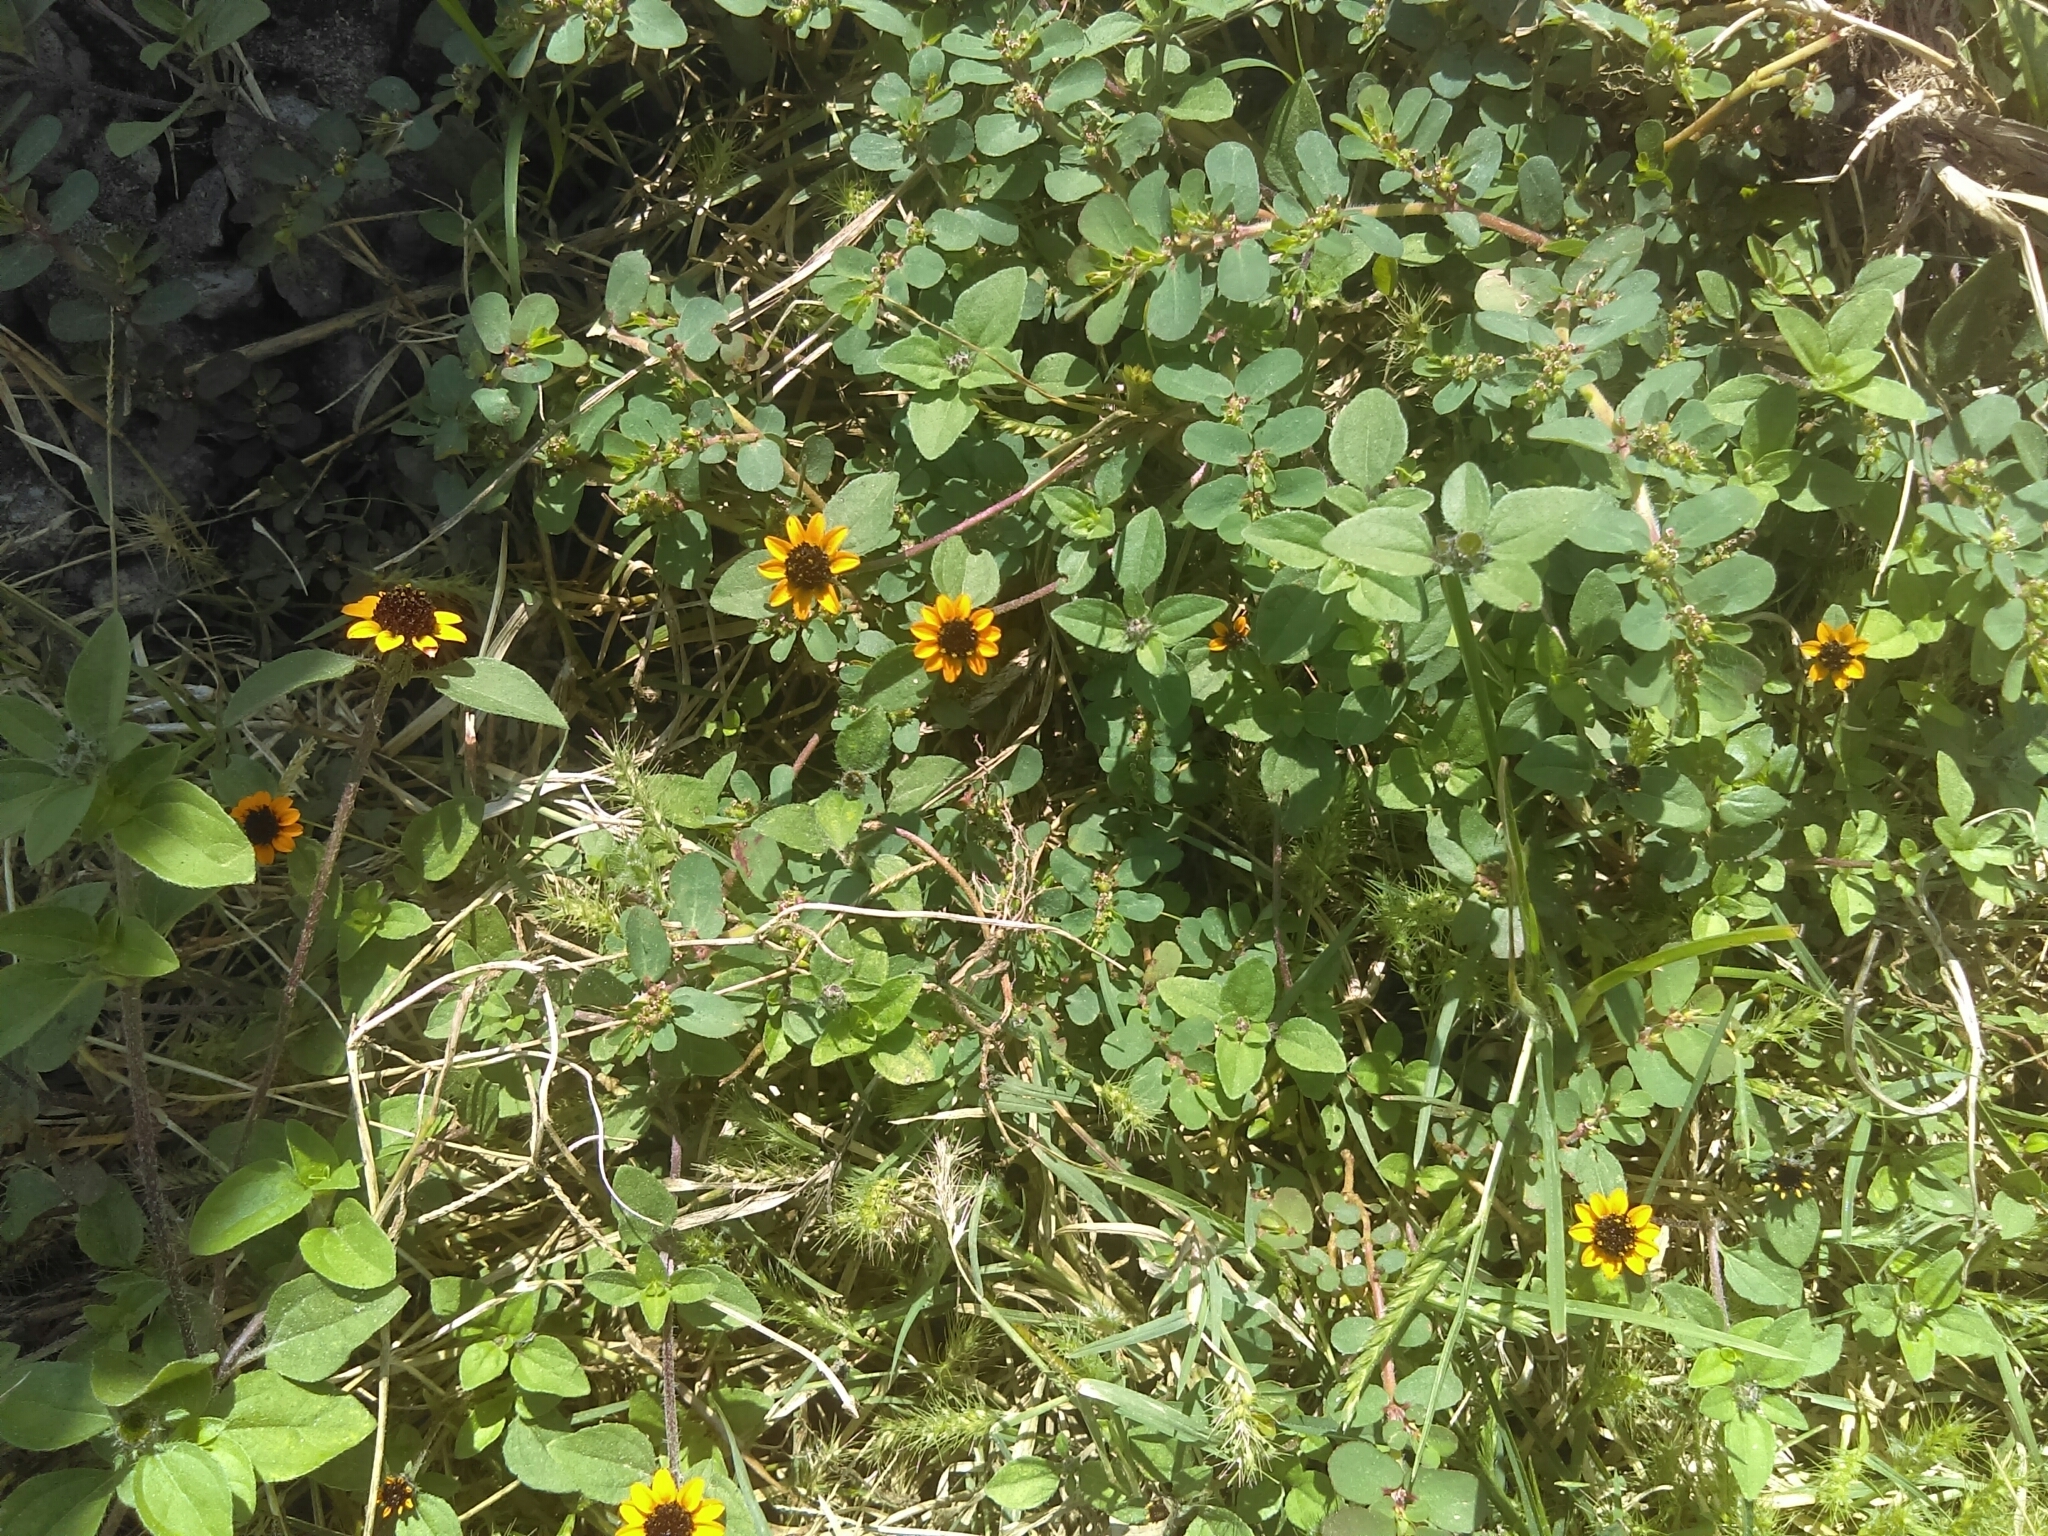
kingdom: Plantae
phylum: Tracheophyta
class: Magnoliopsida
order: Asterales
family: Asteraceae
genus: Sanvitalia
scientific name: Sanvitalia procumbens
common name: Mexican creeping zinnia
